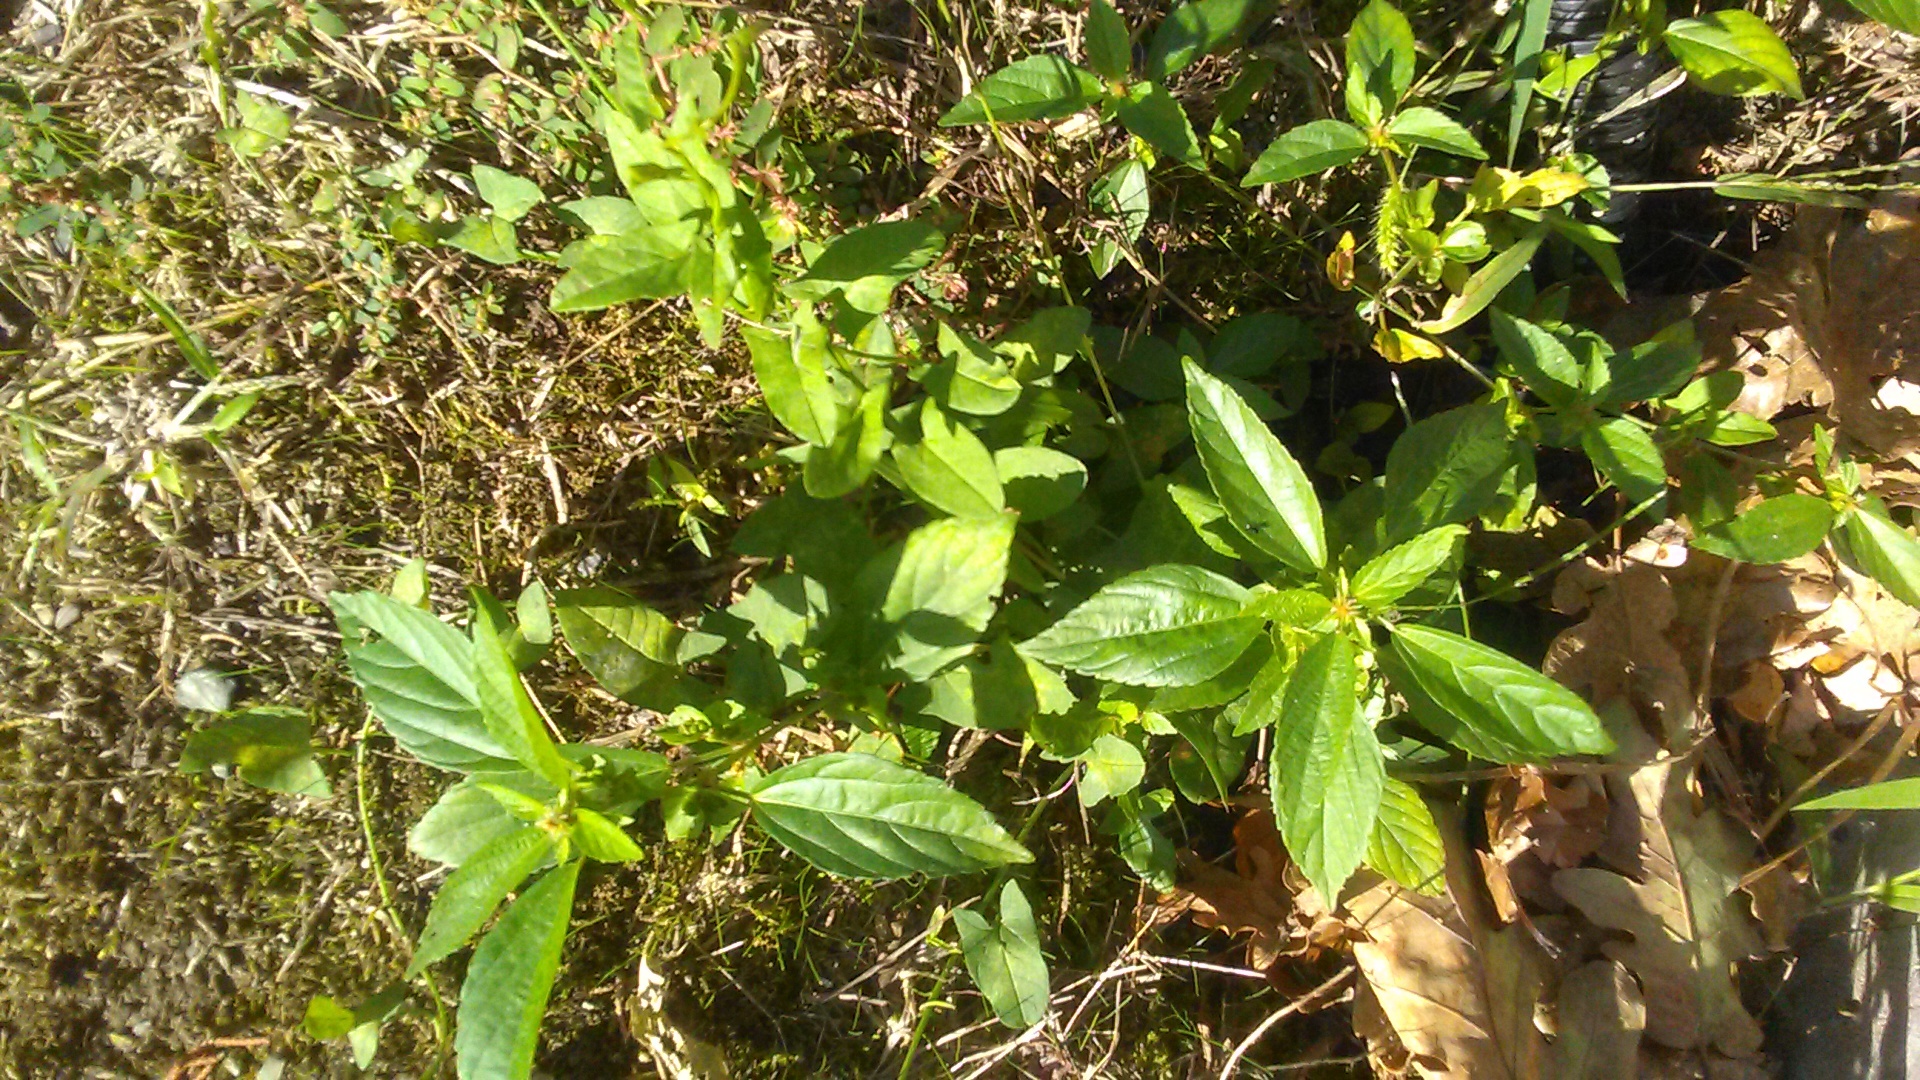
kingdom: Plantae
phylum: Tracheophyta
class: Magnoliopsida
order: Malpighiales
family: Euphorbiaceae
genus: Acalypha
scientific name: Acalypha australis
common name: Asian copperleaf
